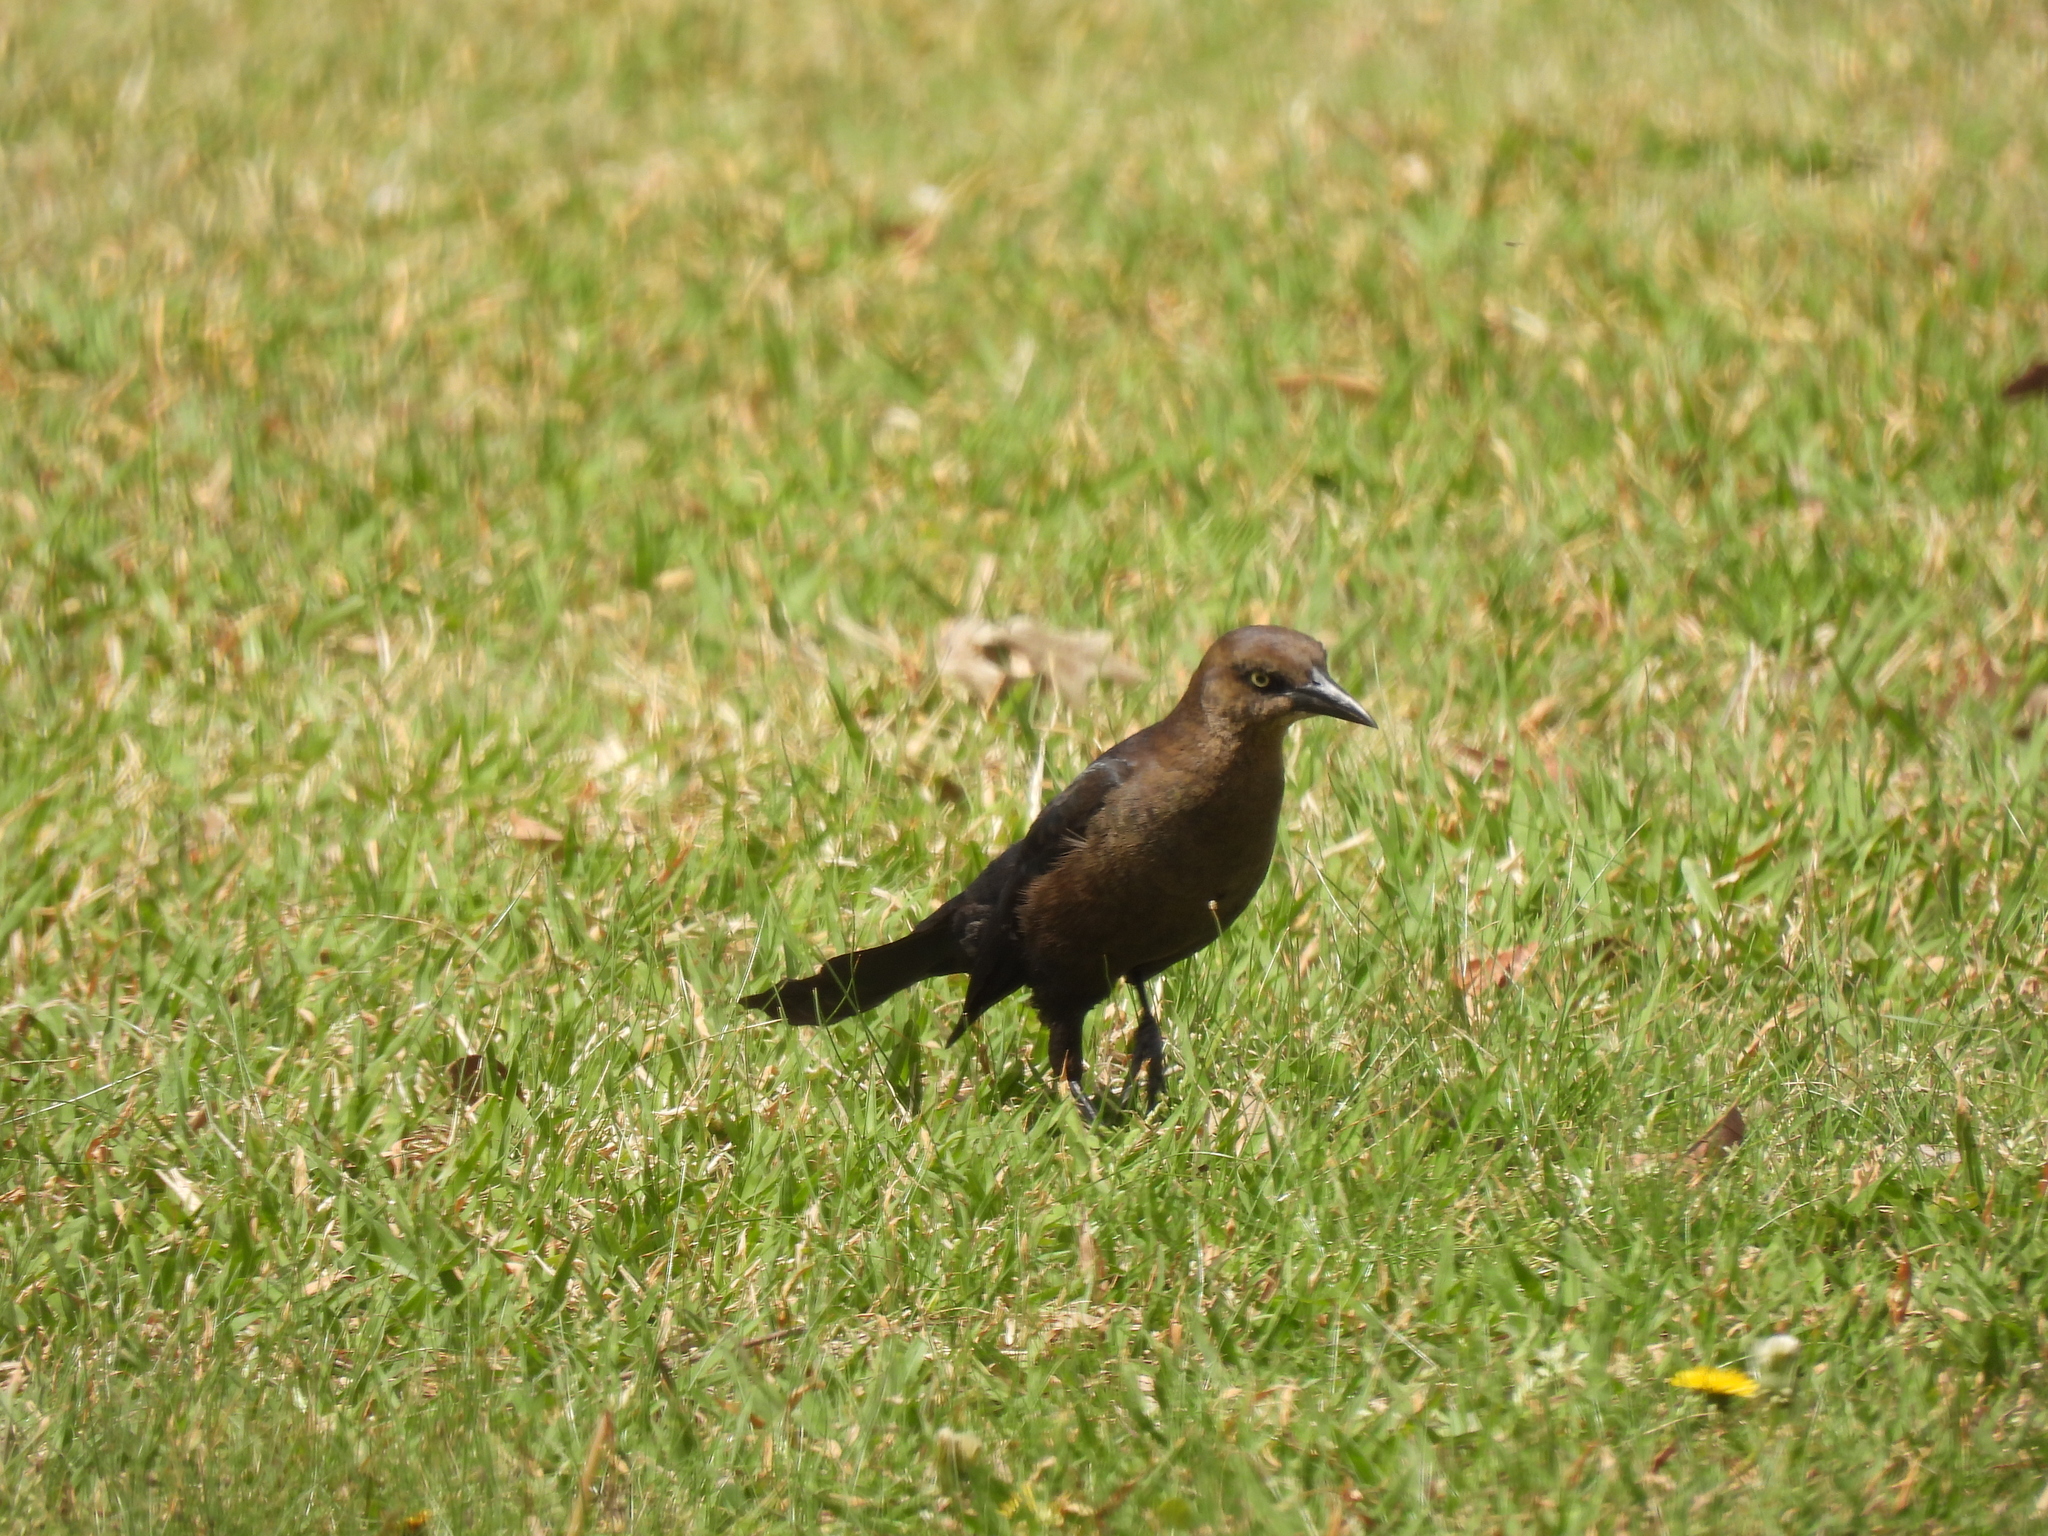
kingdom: Animalia
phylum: Chordata
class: Aves
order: Passeriformes
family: Icteridae
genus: Quiscalus
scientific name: Quiscalus mexicanus
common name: Great-tailed grackle
